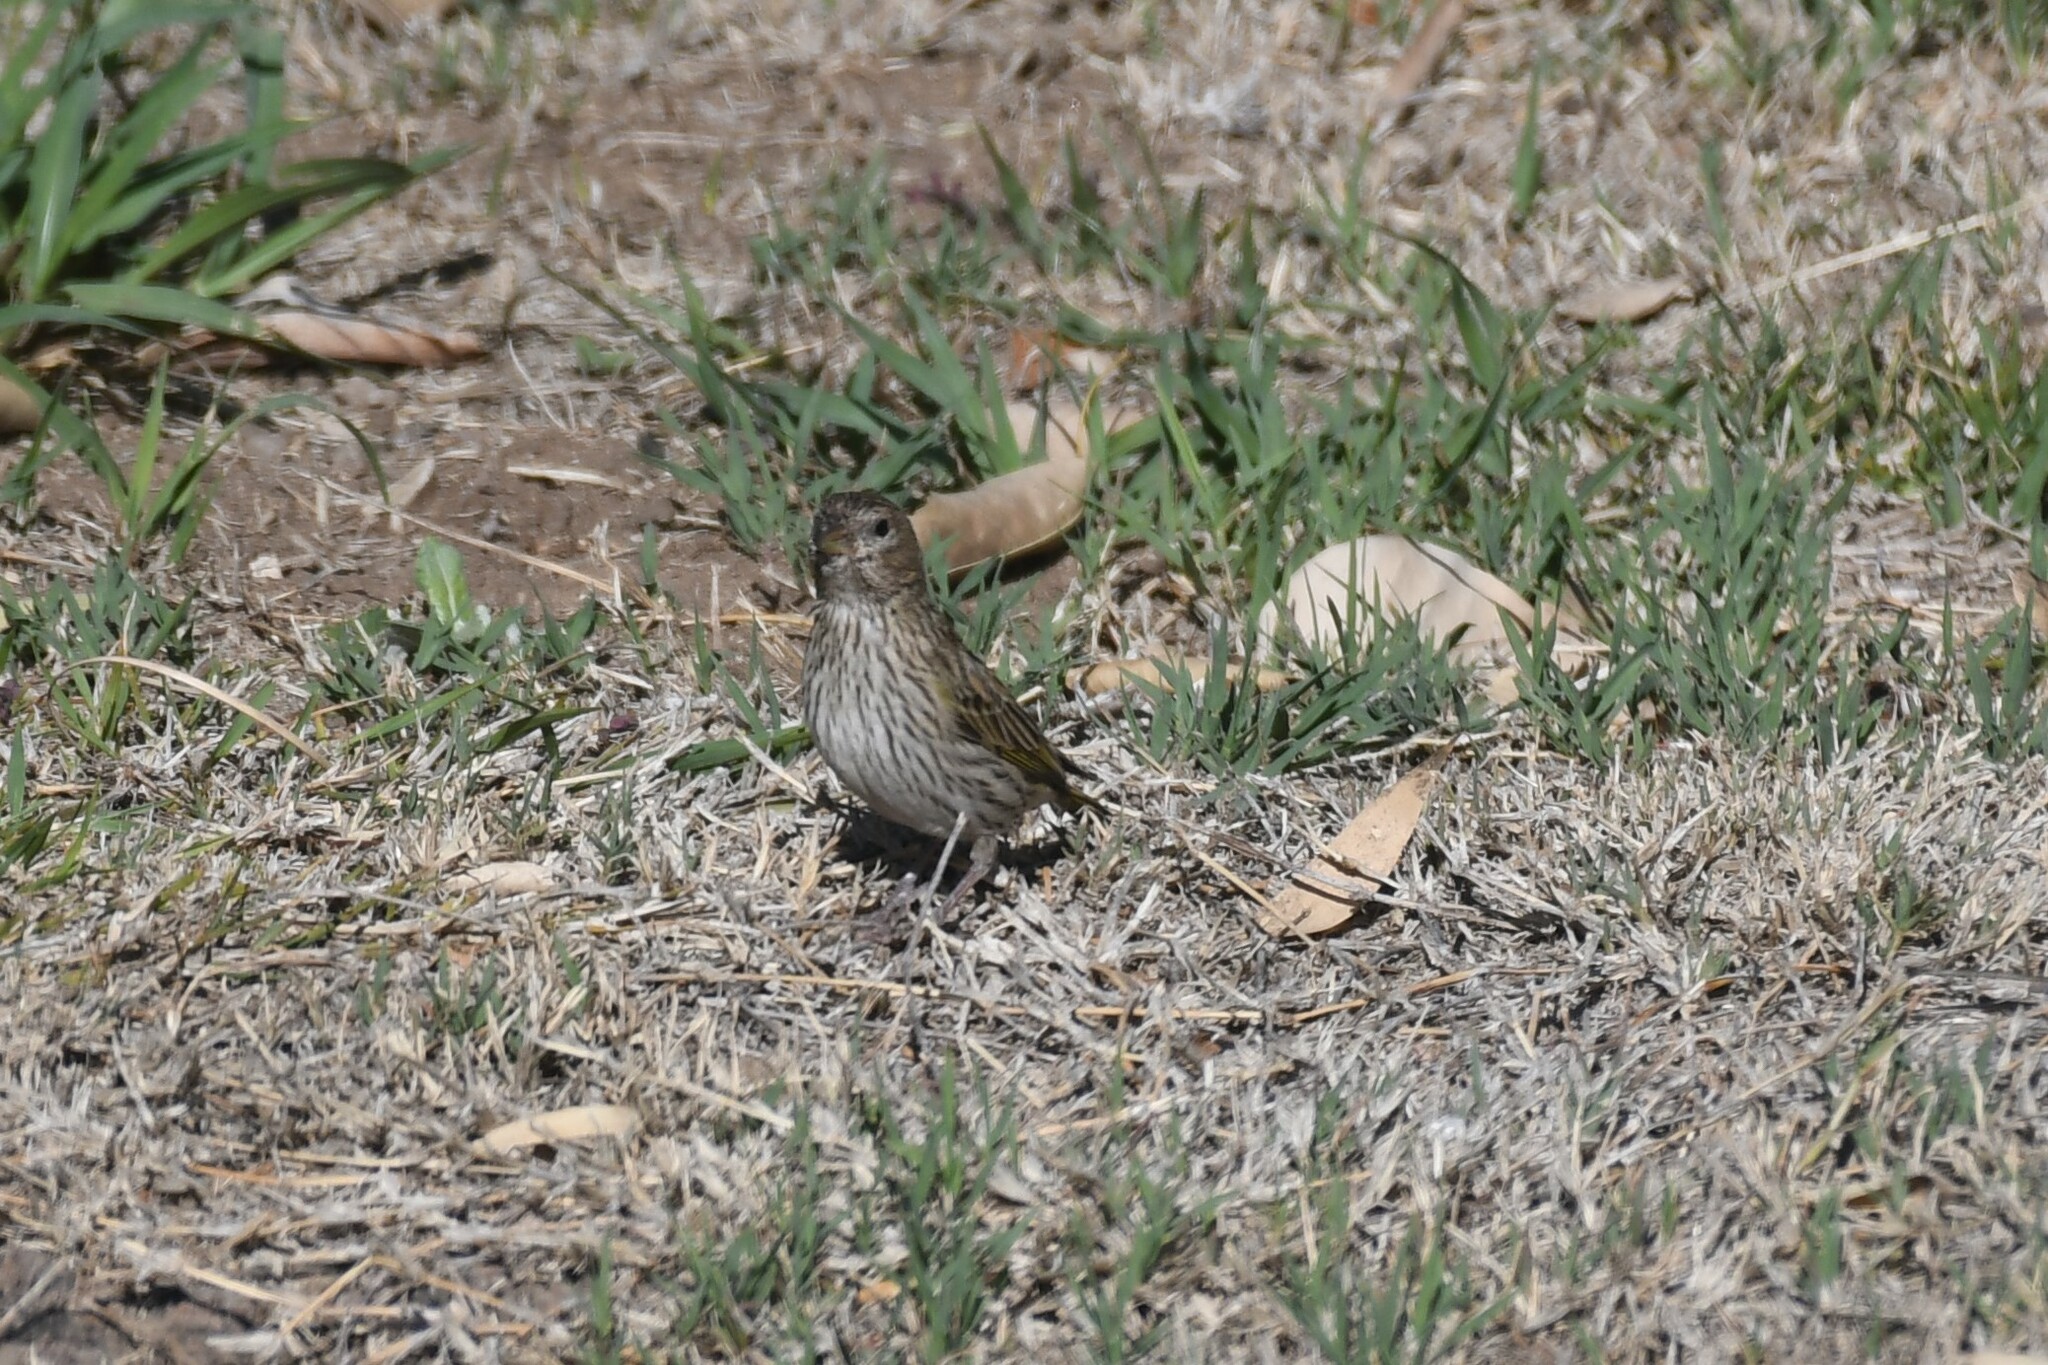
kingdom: Animalia
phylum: Chordata
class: Aves
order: Passeriformes
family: Thraupidae
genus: Sicalis
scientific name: Sicalis flaveola
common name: Saffron finch
